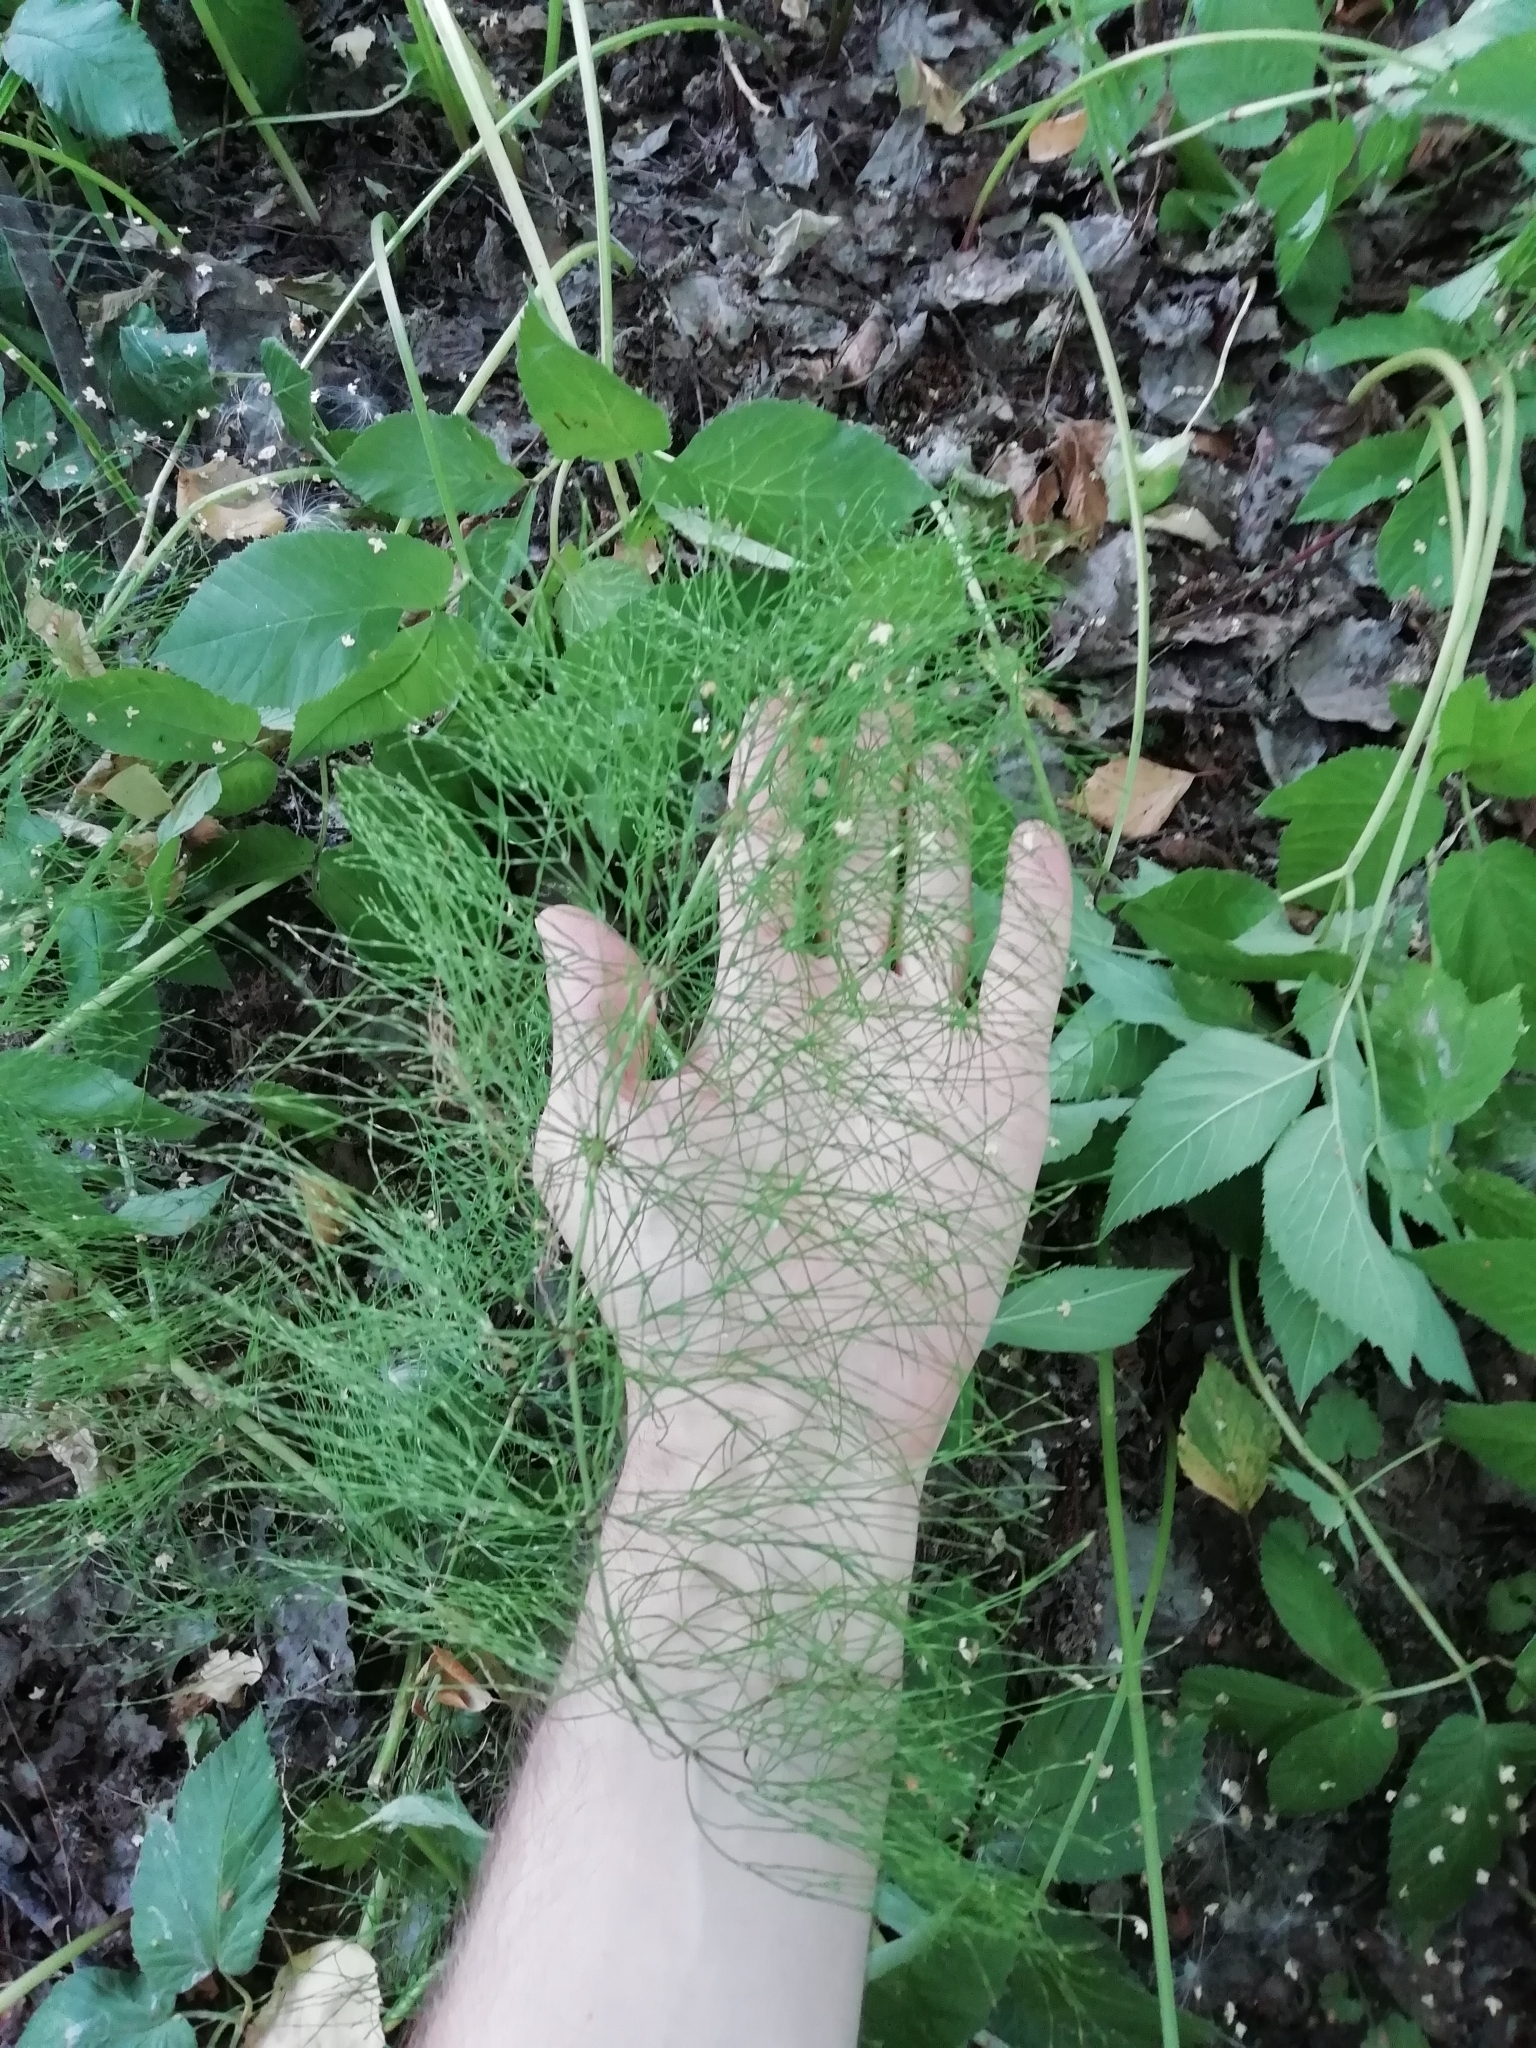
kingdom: Plantae
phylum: Tracheophyta
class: Polypodiopsida
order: Equisetales
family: Equisetaceae
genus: Equisetum
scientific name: Equisetum sylvaticum
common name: Wood horsetail
